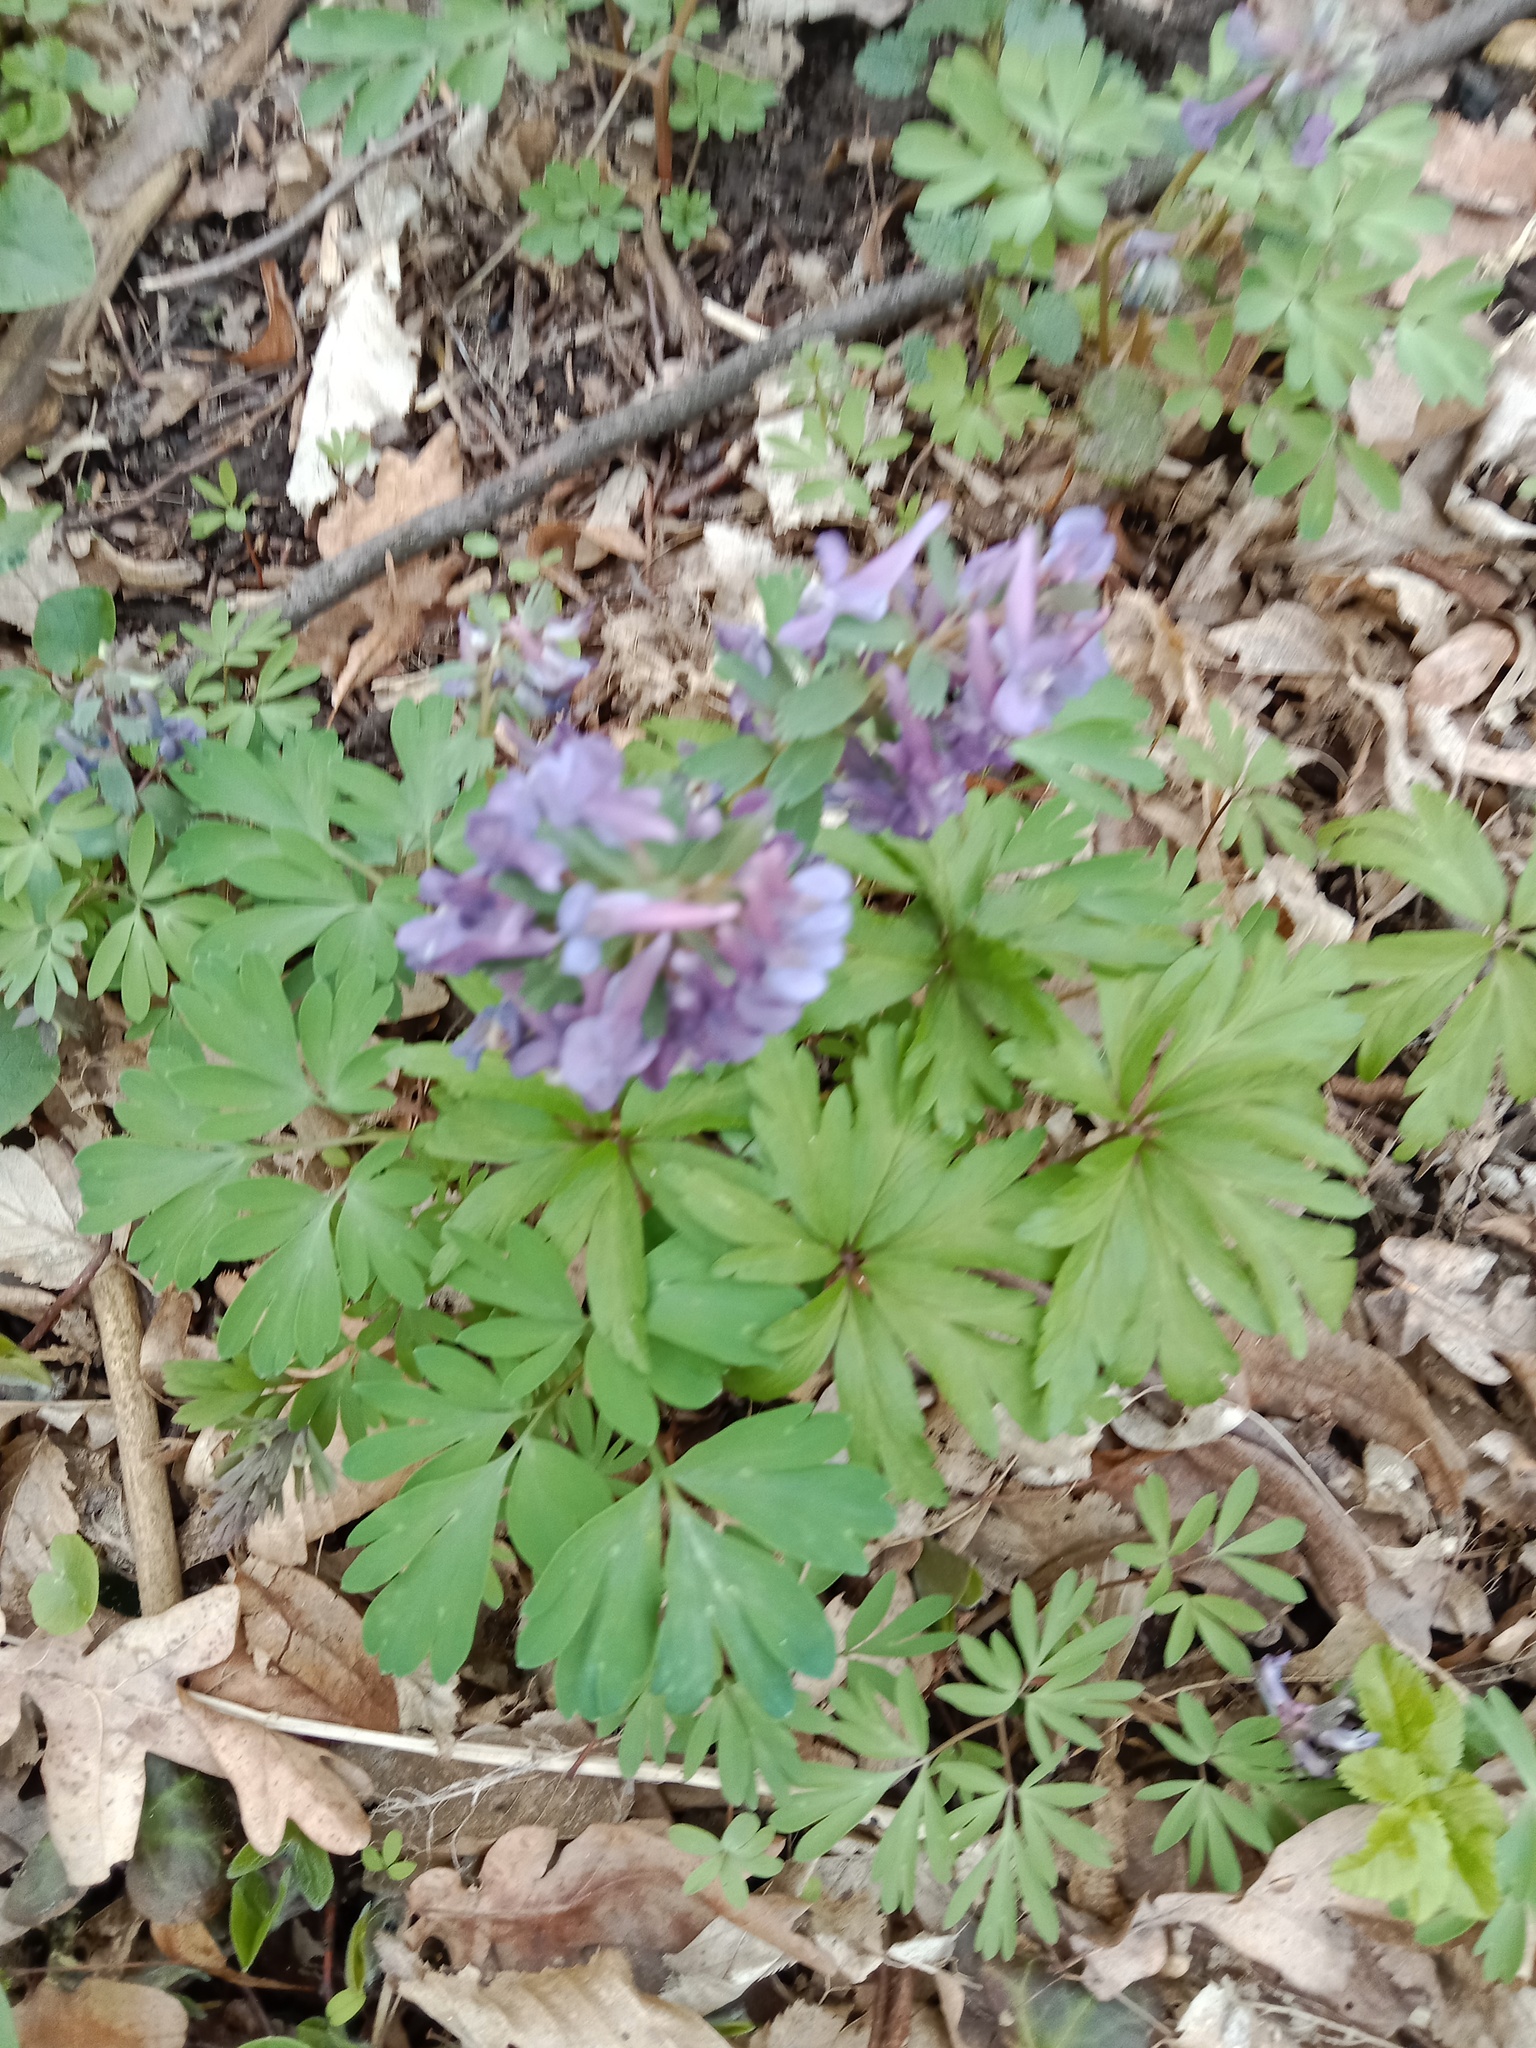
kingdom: Plantae
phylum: Tracheophyta
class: Magnoliopsida
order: Ranunculales
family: Papaveraceae
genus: Corydalis
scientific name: Corydalis solida
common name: Bird-in-a-bush
